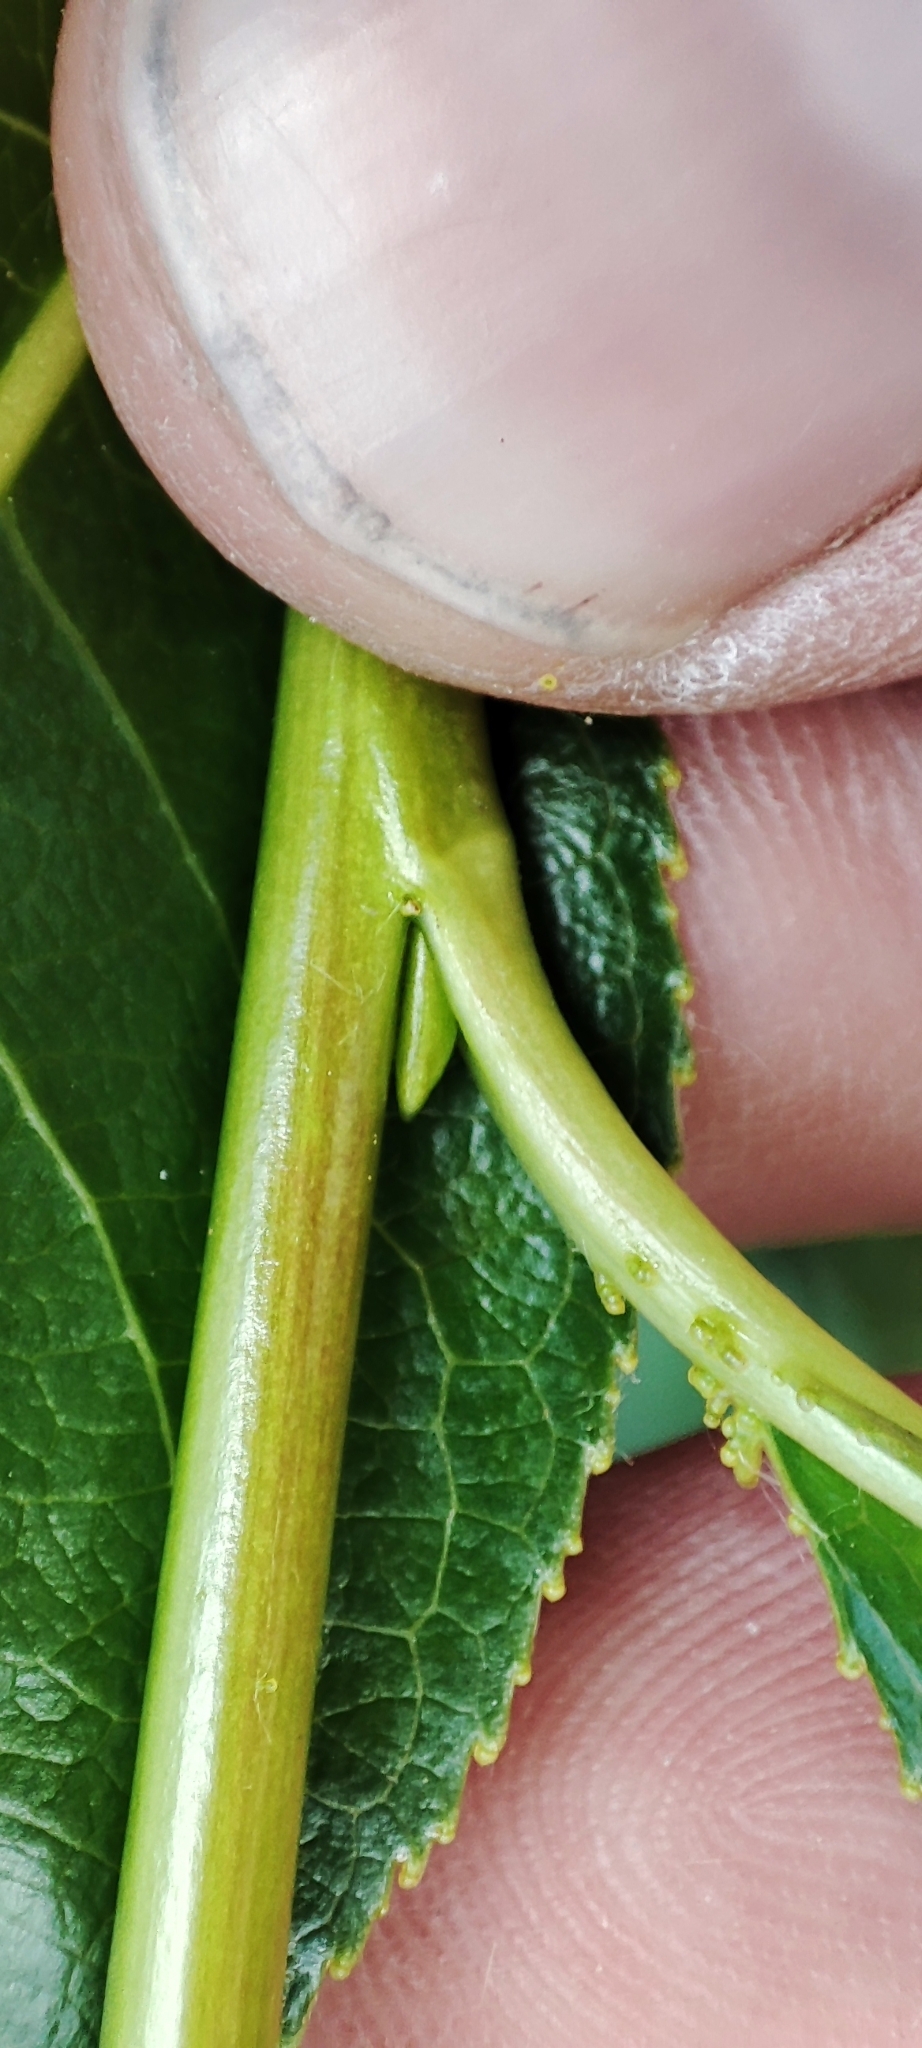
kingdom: Plantae
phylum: Tracheophyta
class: Magnoliopsida
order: Malpighiales
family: Salicaceae
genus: Salix
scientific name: Salix pentandra
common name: Bay willow
